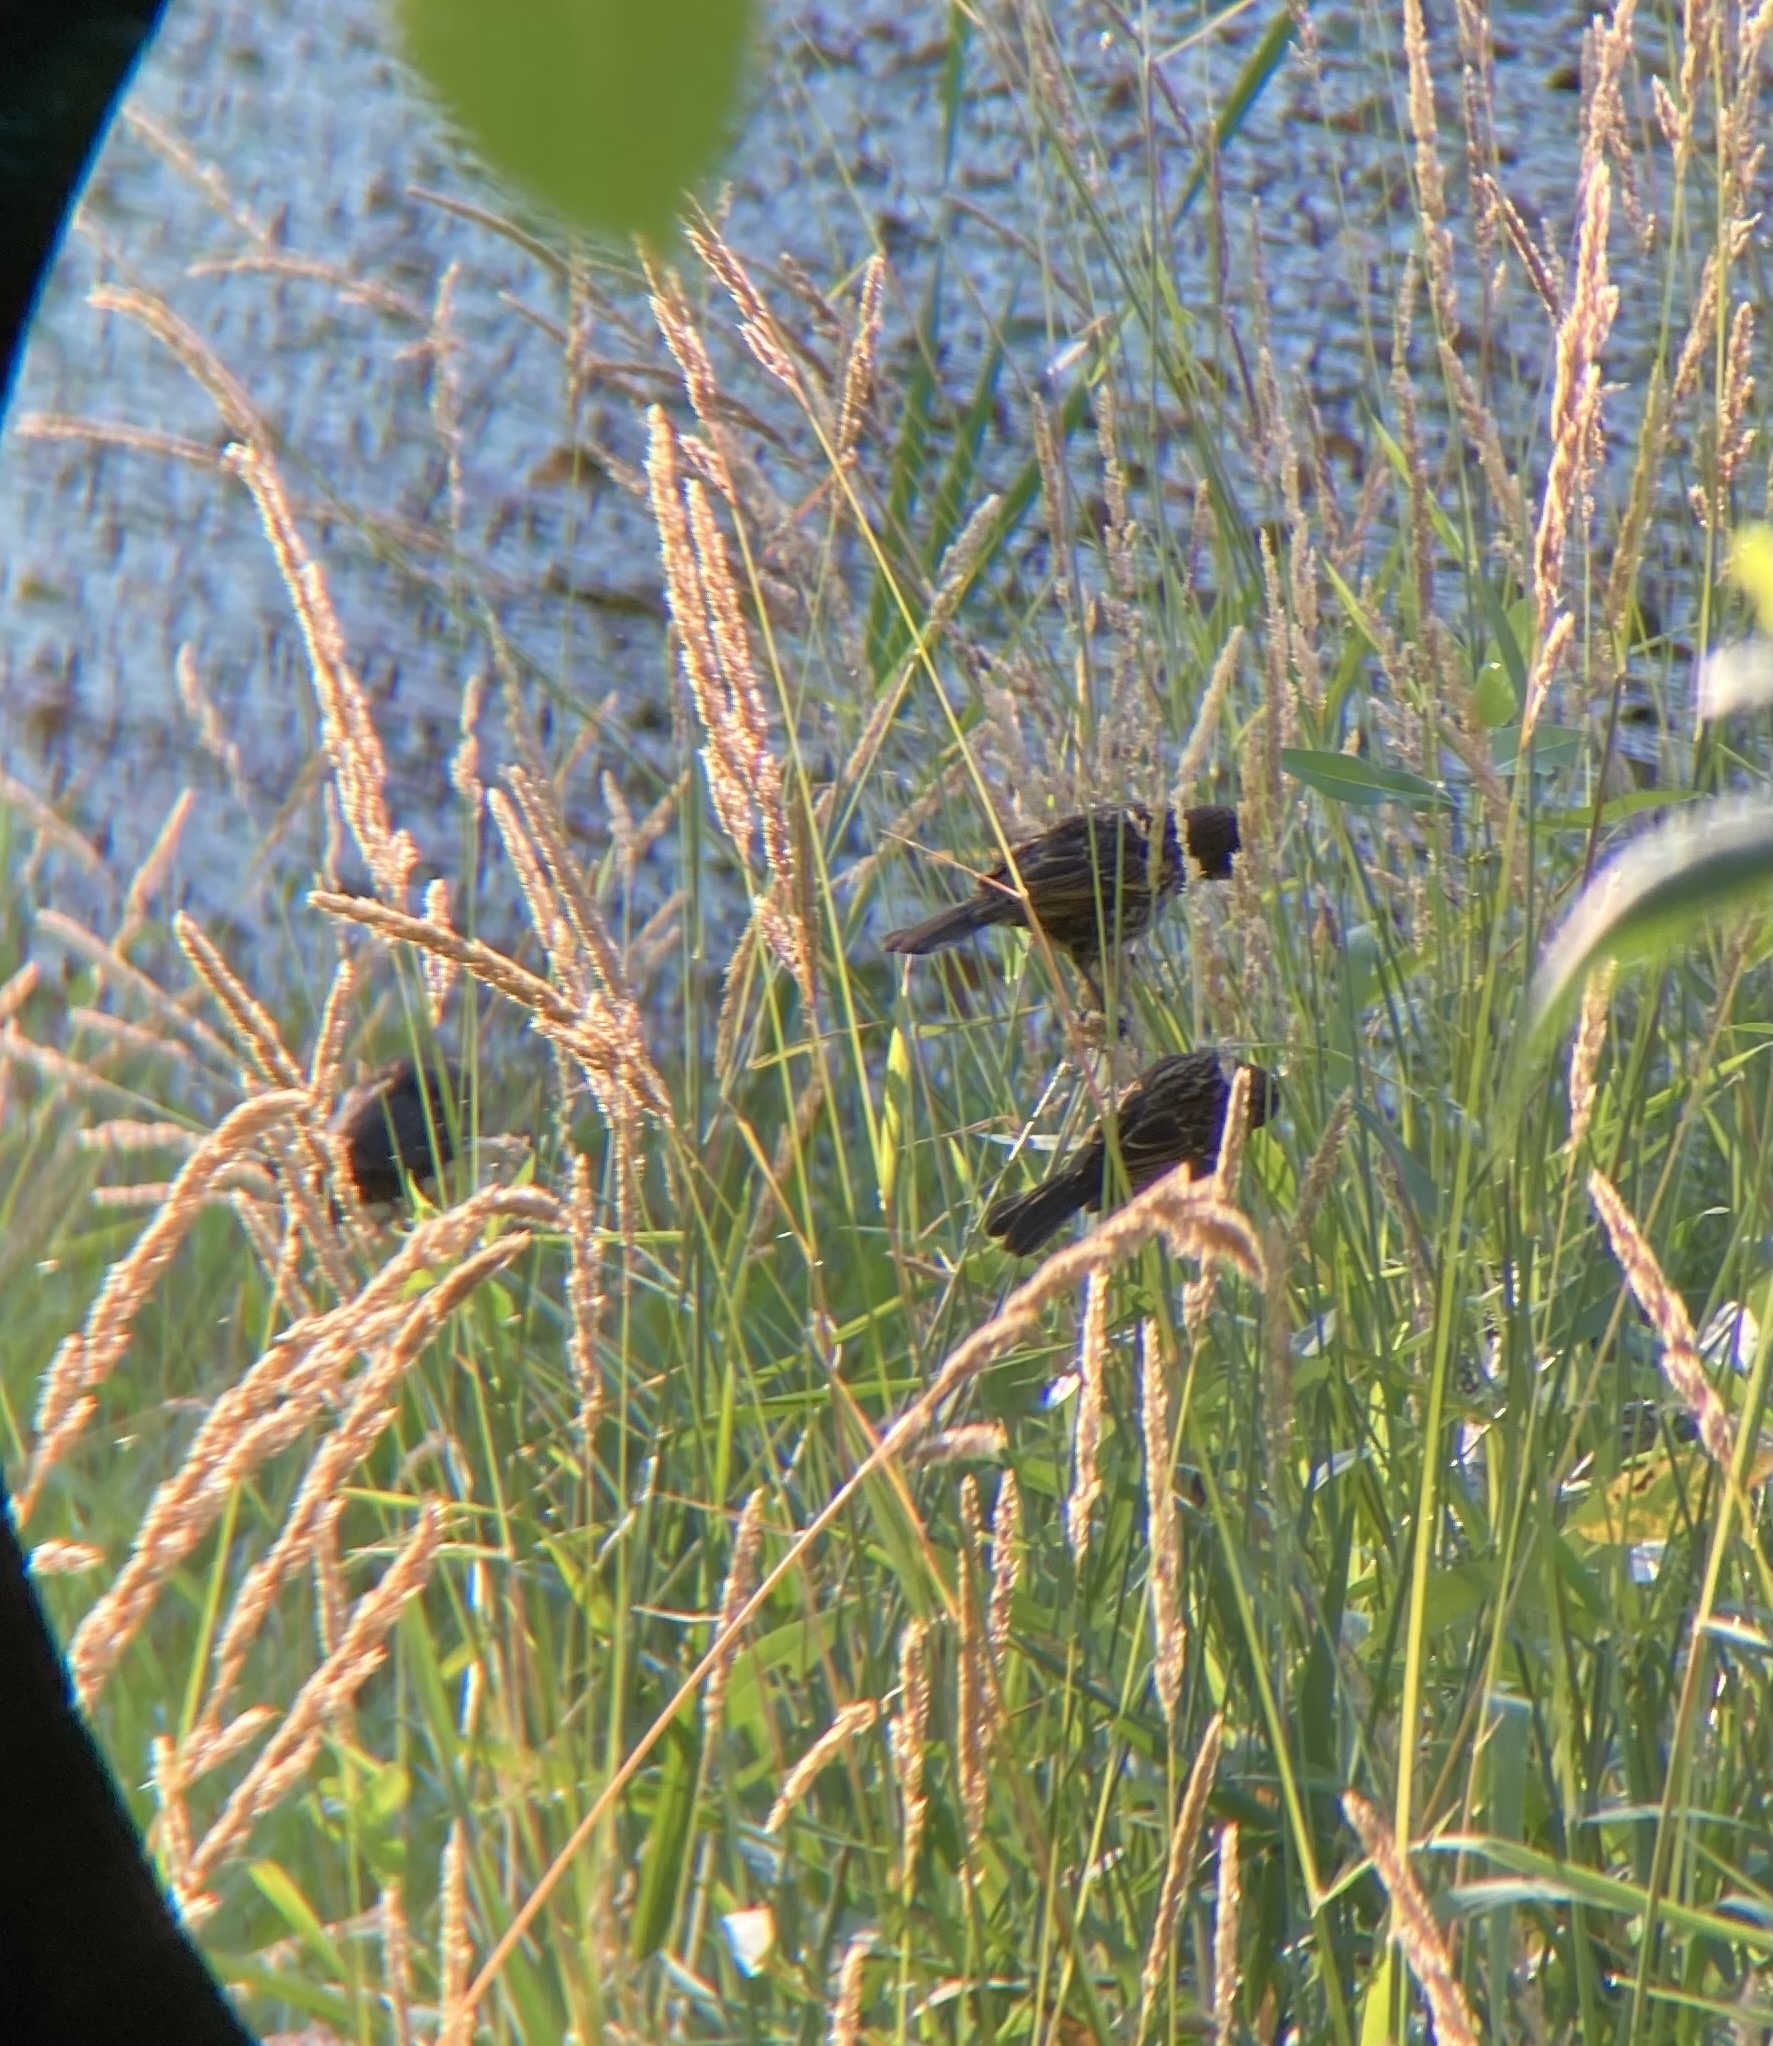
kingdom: Animalia
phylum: Chordata
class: Aves
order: Passeriformes
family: Icteridae
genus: Agelaius
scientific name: Agelaius phoeniceus
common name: Red-winged blackbird
